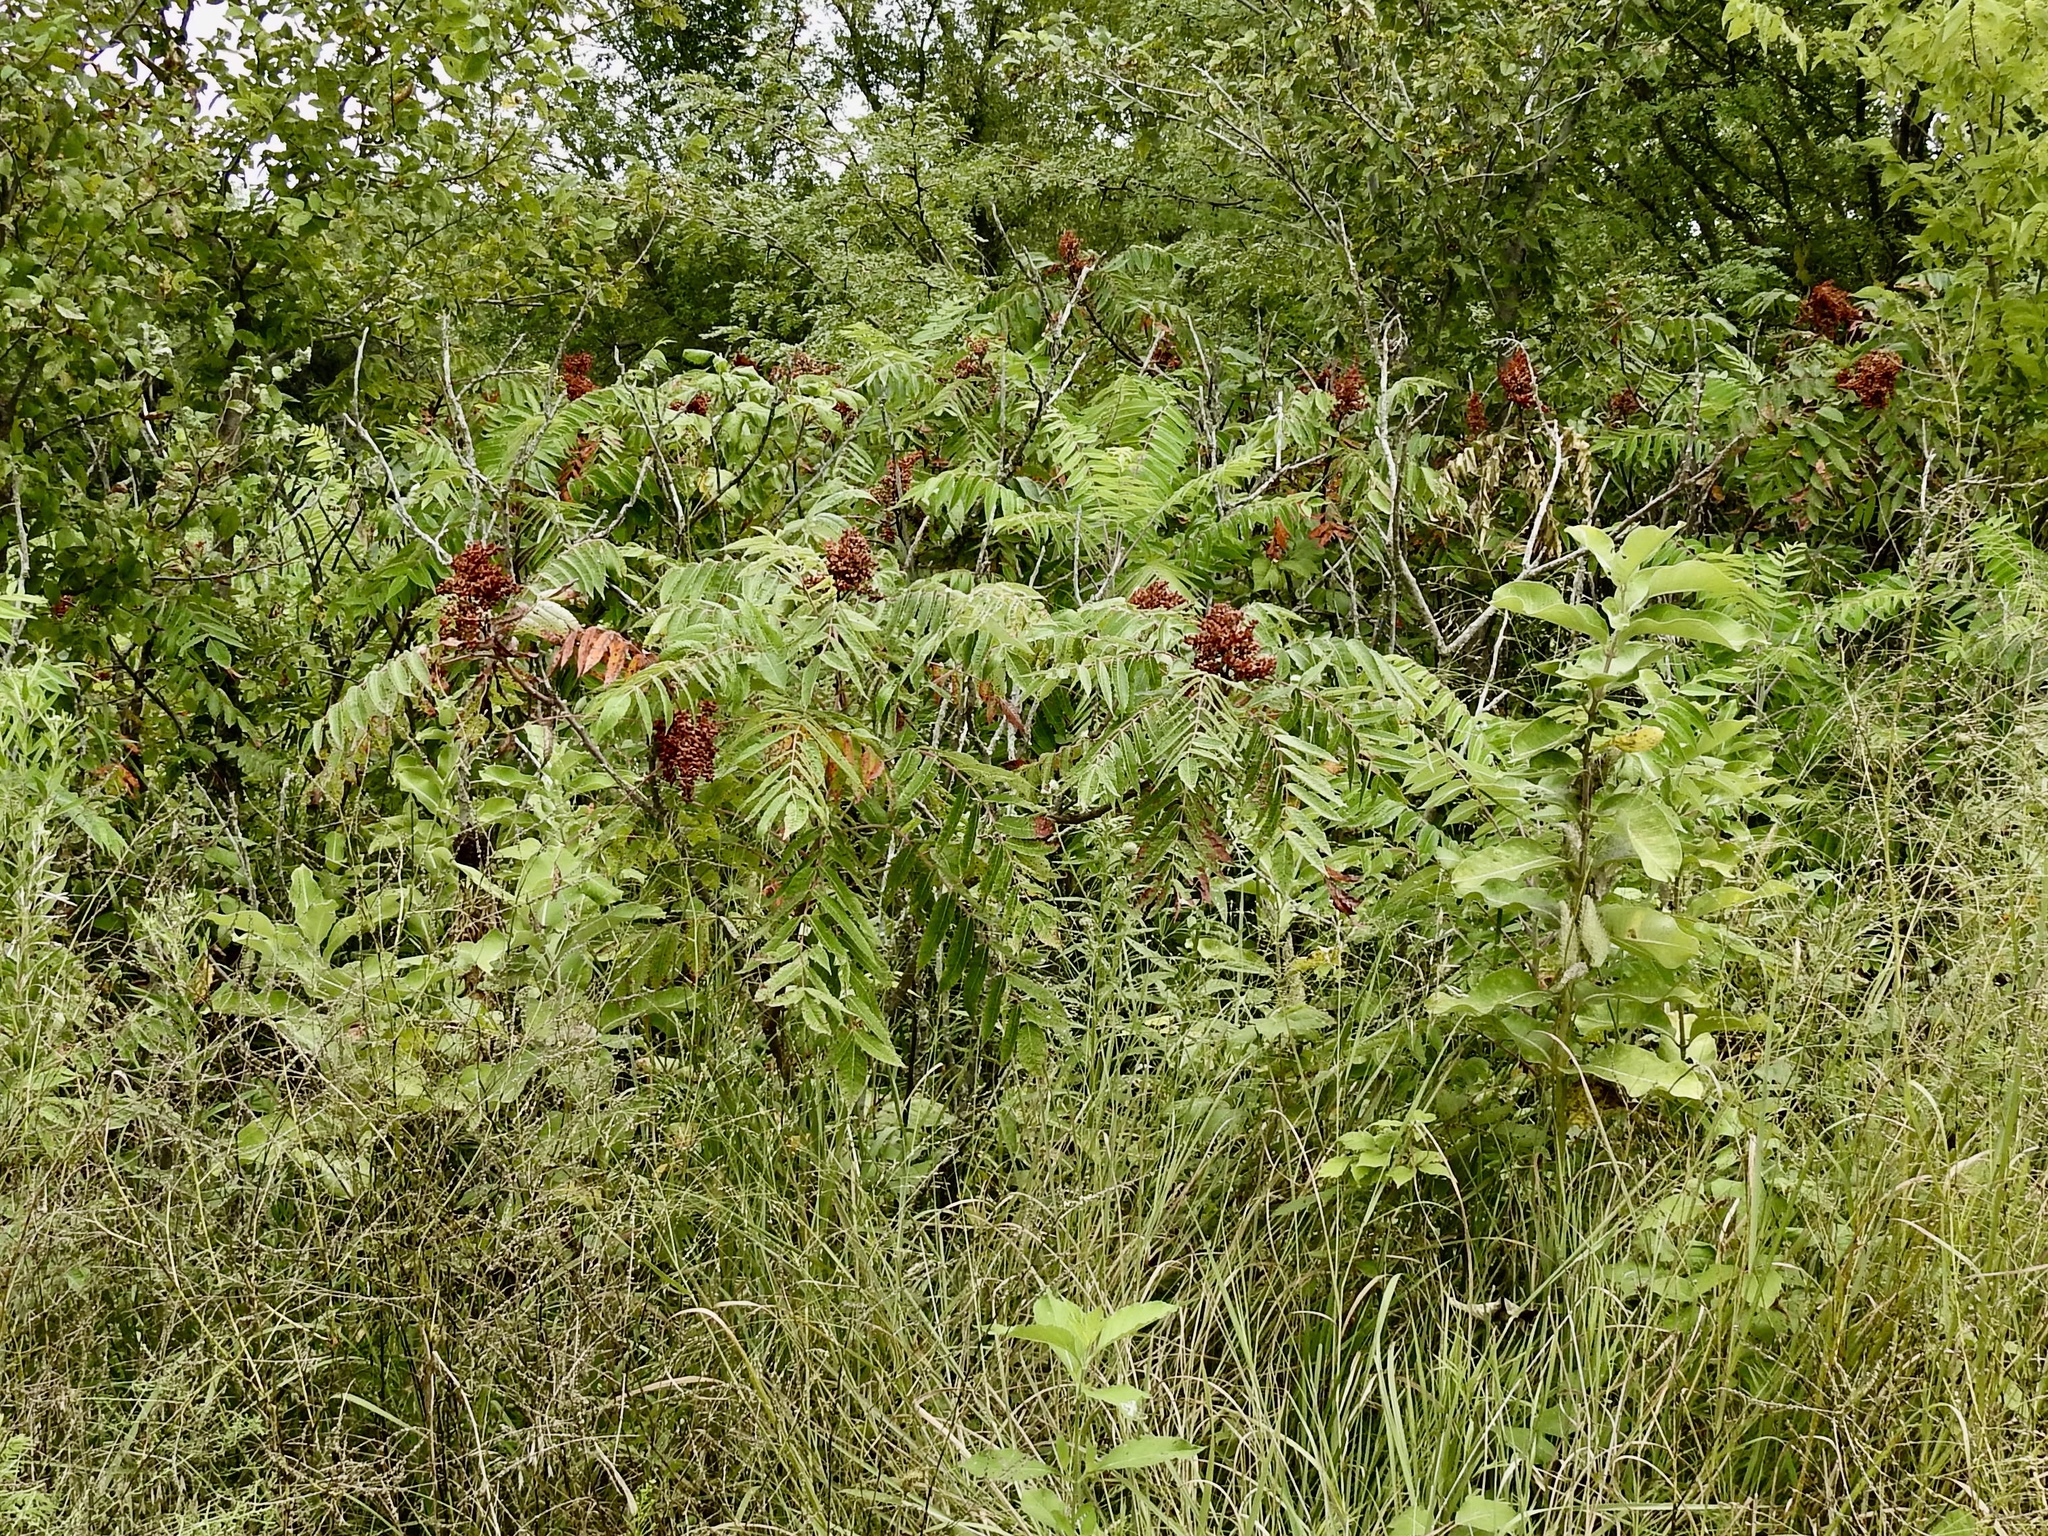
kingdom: Plantae
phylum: Tracheophyta
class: Magnoliopsida
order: Sapindales
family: Anacardiaceae
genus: Rhus
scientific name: Rhus glabra
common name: Scarlet sumac
